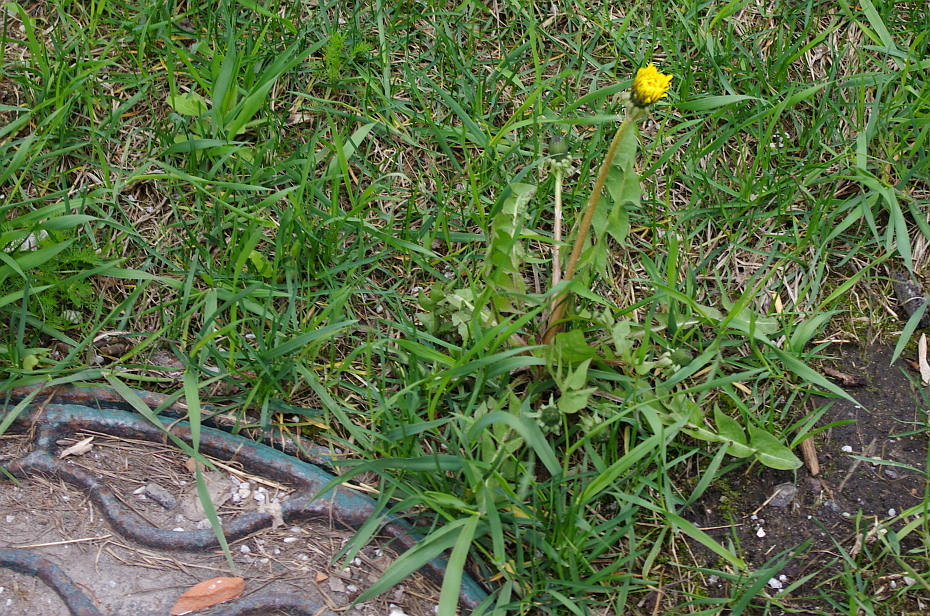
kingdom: Plantae
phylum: Tracheophyta
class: Magnoliopsida
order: Asterales
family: Asteraceae
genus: Taraxacum
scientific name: Taraxacum officinale
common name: Common dandelion
